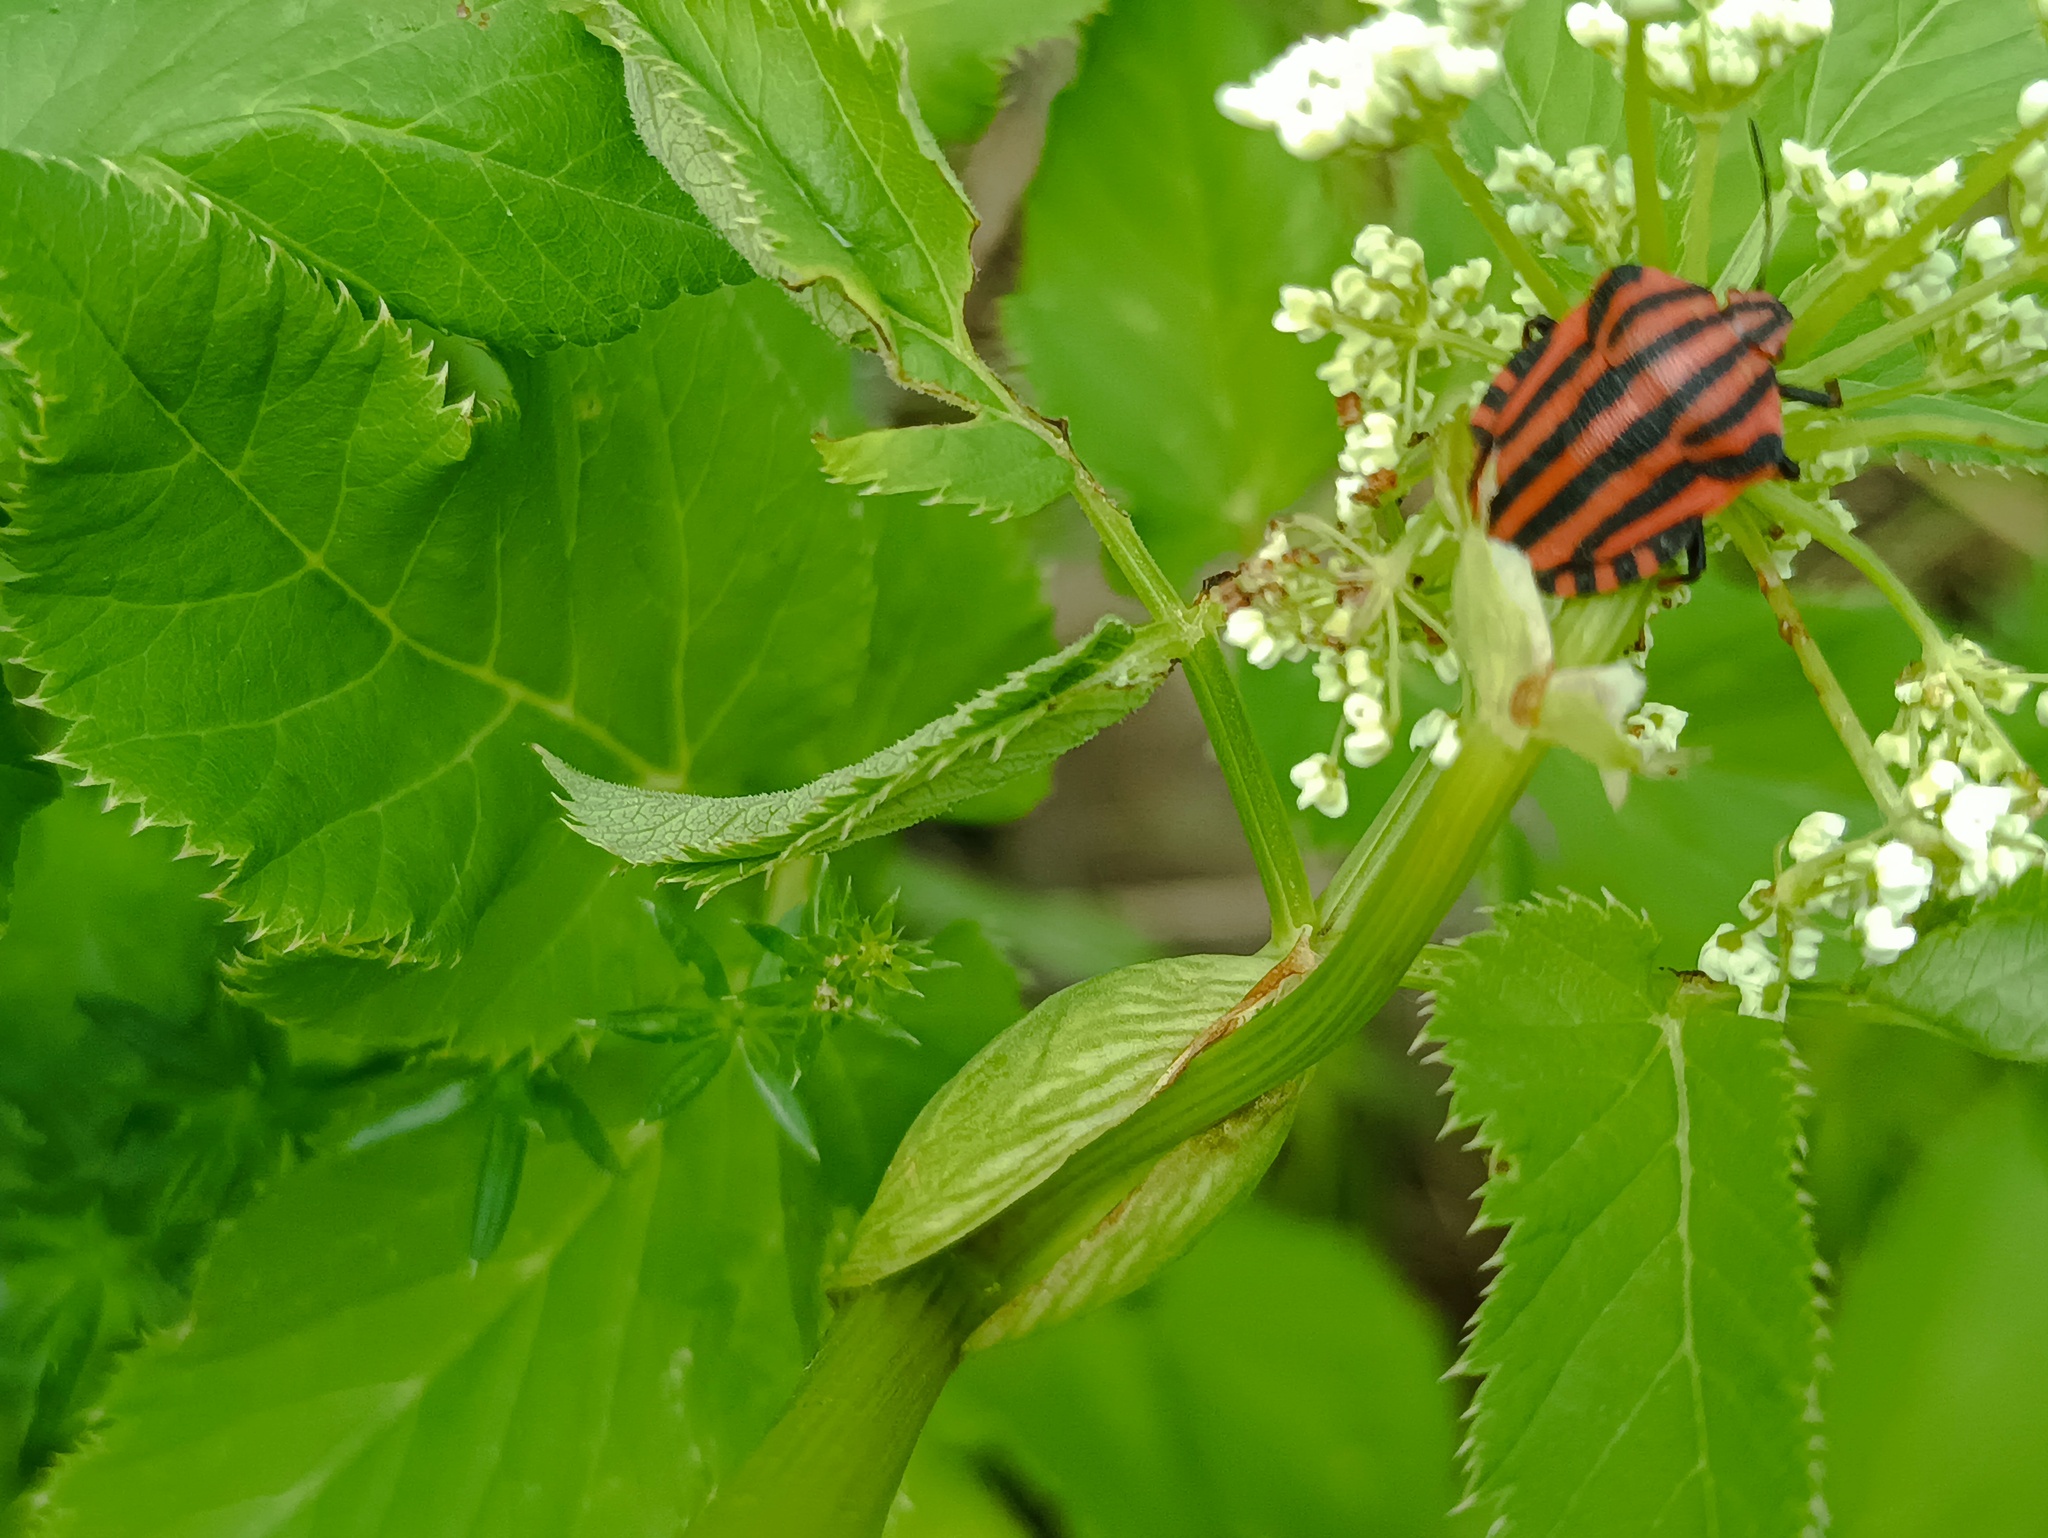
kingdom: Animalia
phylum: Arthropoda
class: Insecta
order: Hemiptera
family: Pentatomidae
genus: Graphosoma
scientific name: Graphosoma italicum
